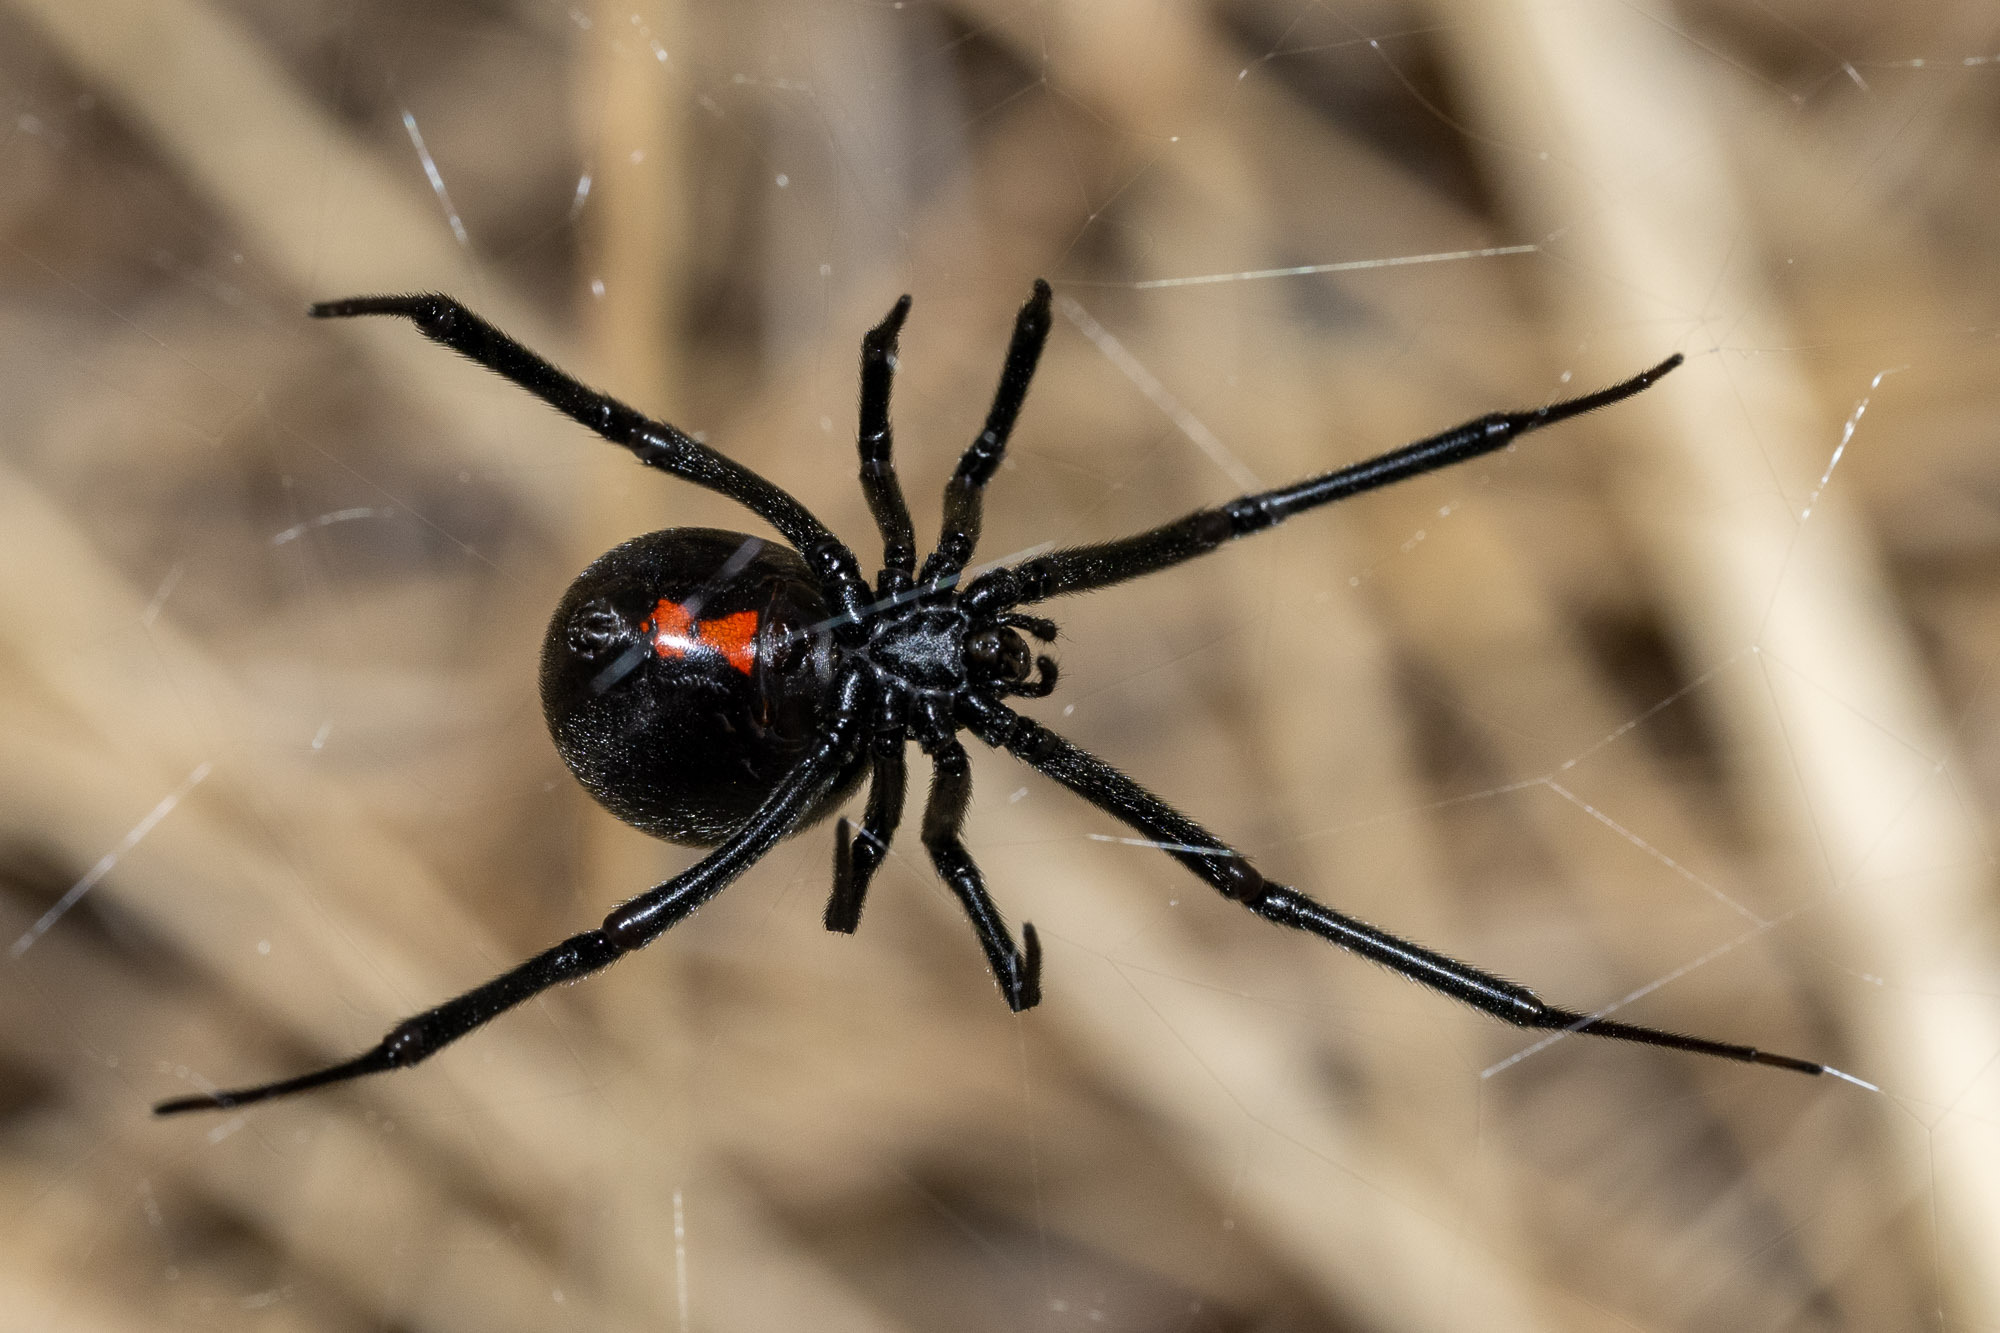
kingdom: Animalia
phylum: Arthropoda
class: Arachnida
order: Araneae
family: Theridiidae
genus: Latrodectus
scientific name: Latrodectus hesperus
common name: Western black widow
